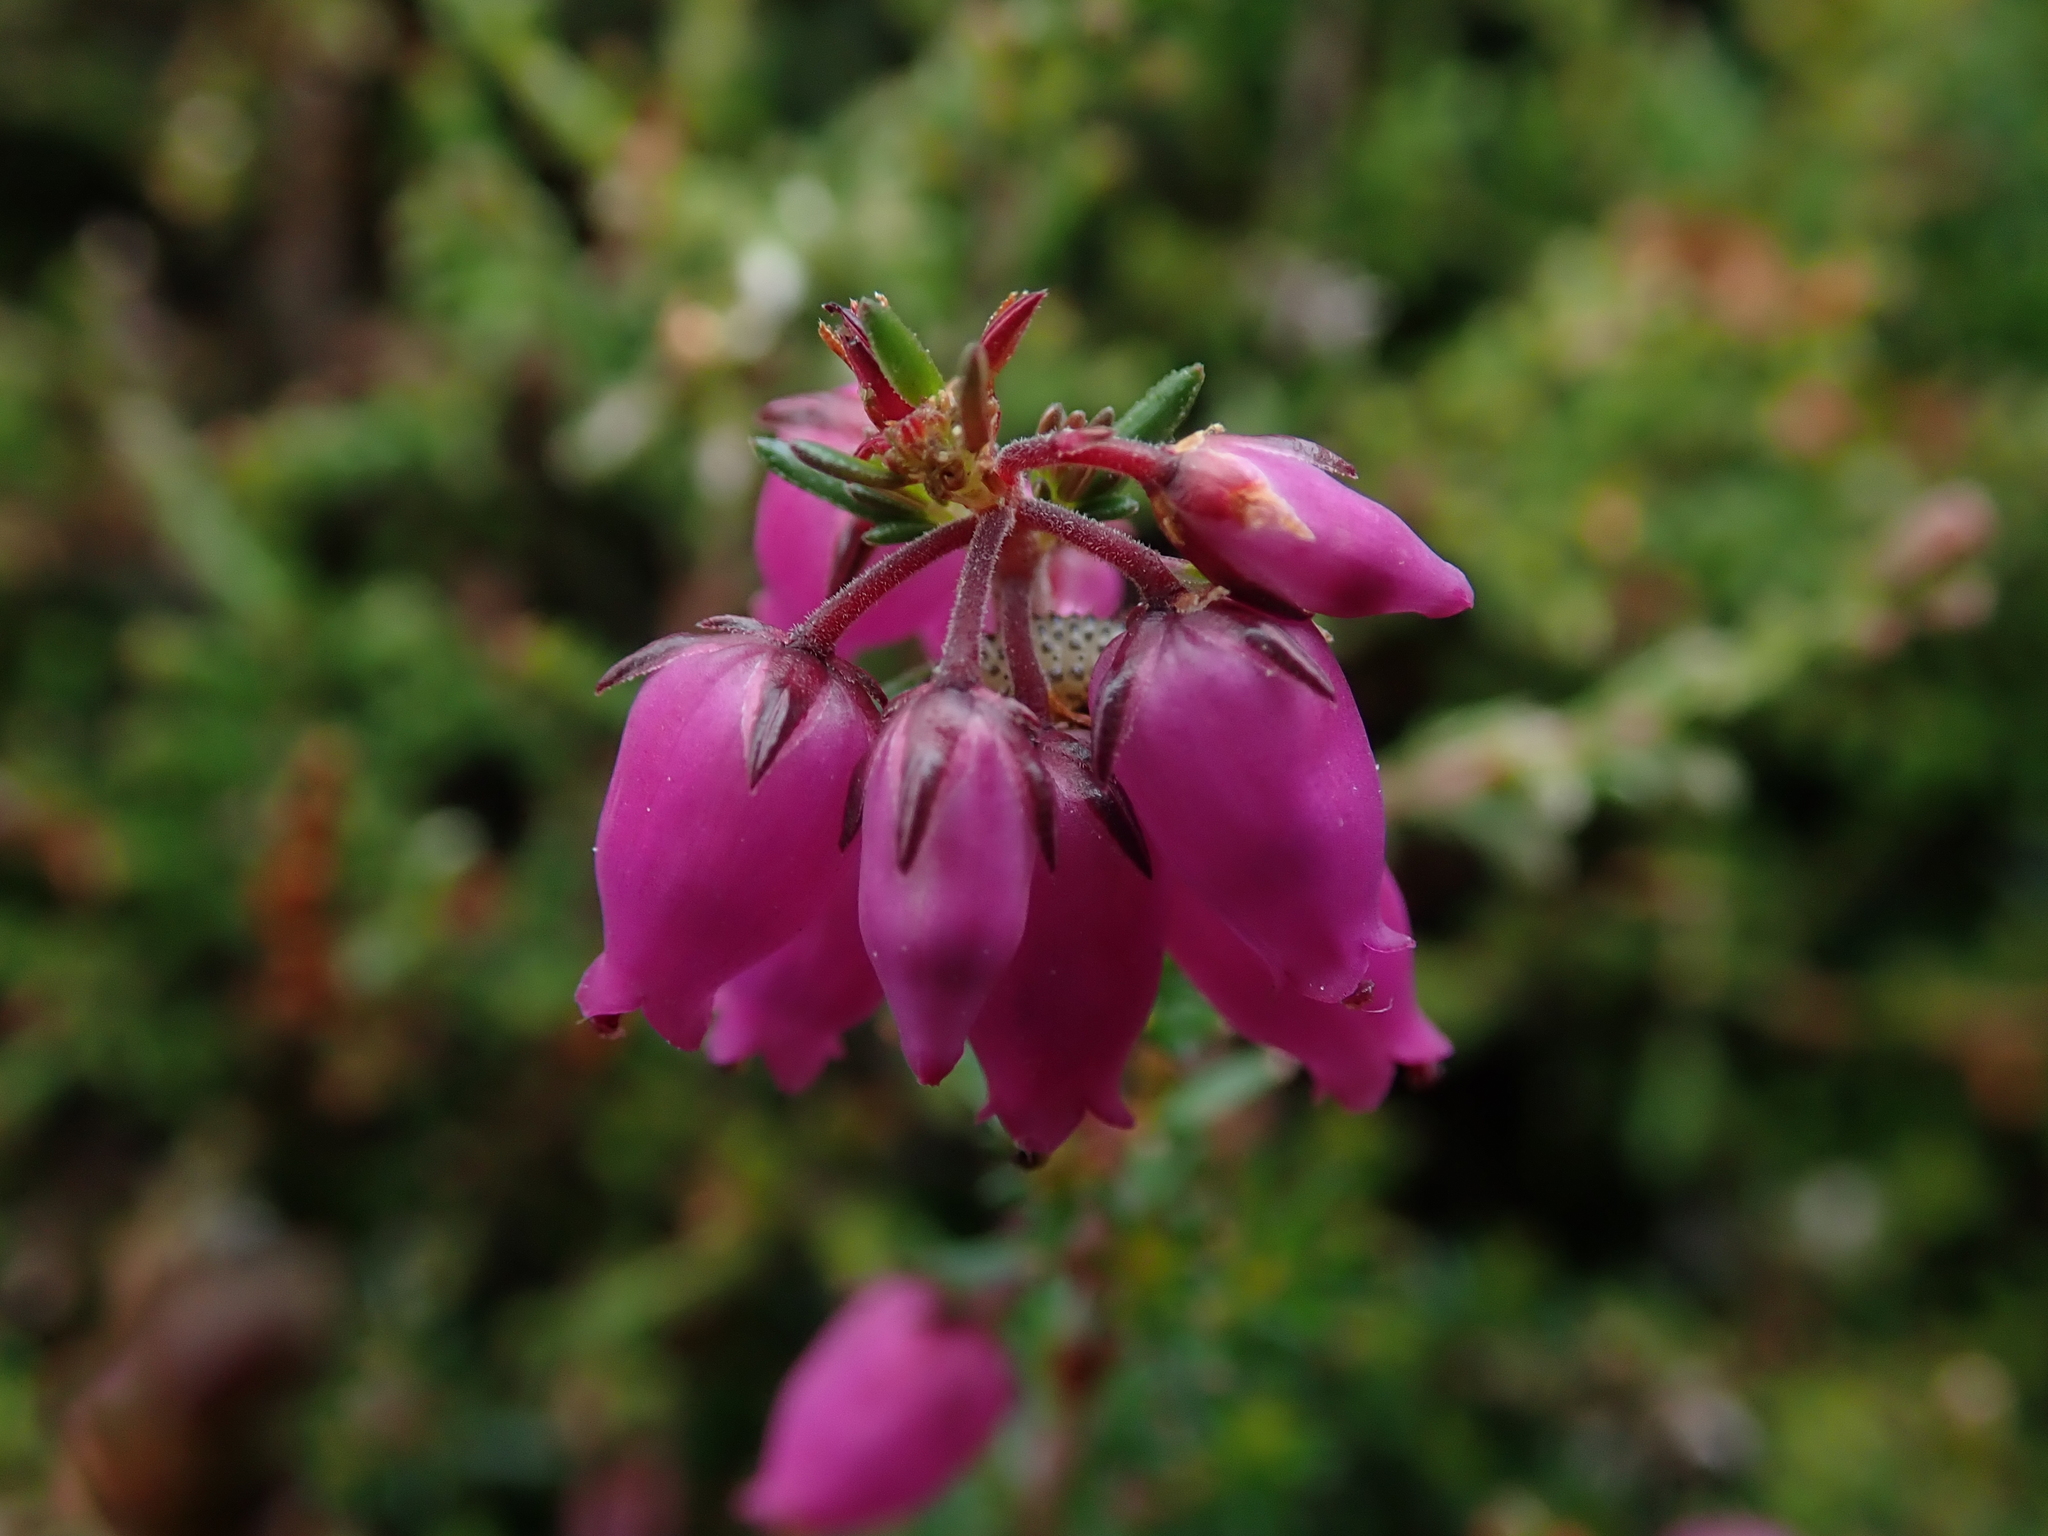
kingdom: Plantae
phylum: Tracheophyta
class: Magnoliopsida
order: Ericales
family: Ericaceae
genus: Erica
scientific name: Erica cinerea
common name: Bell heather
